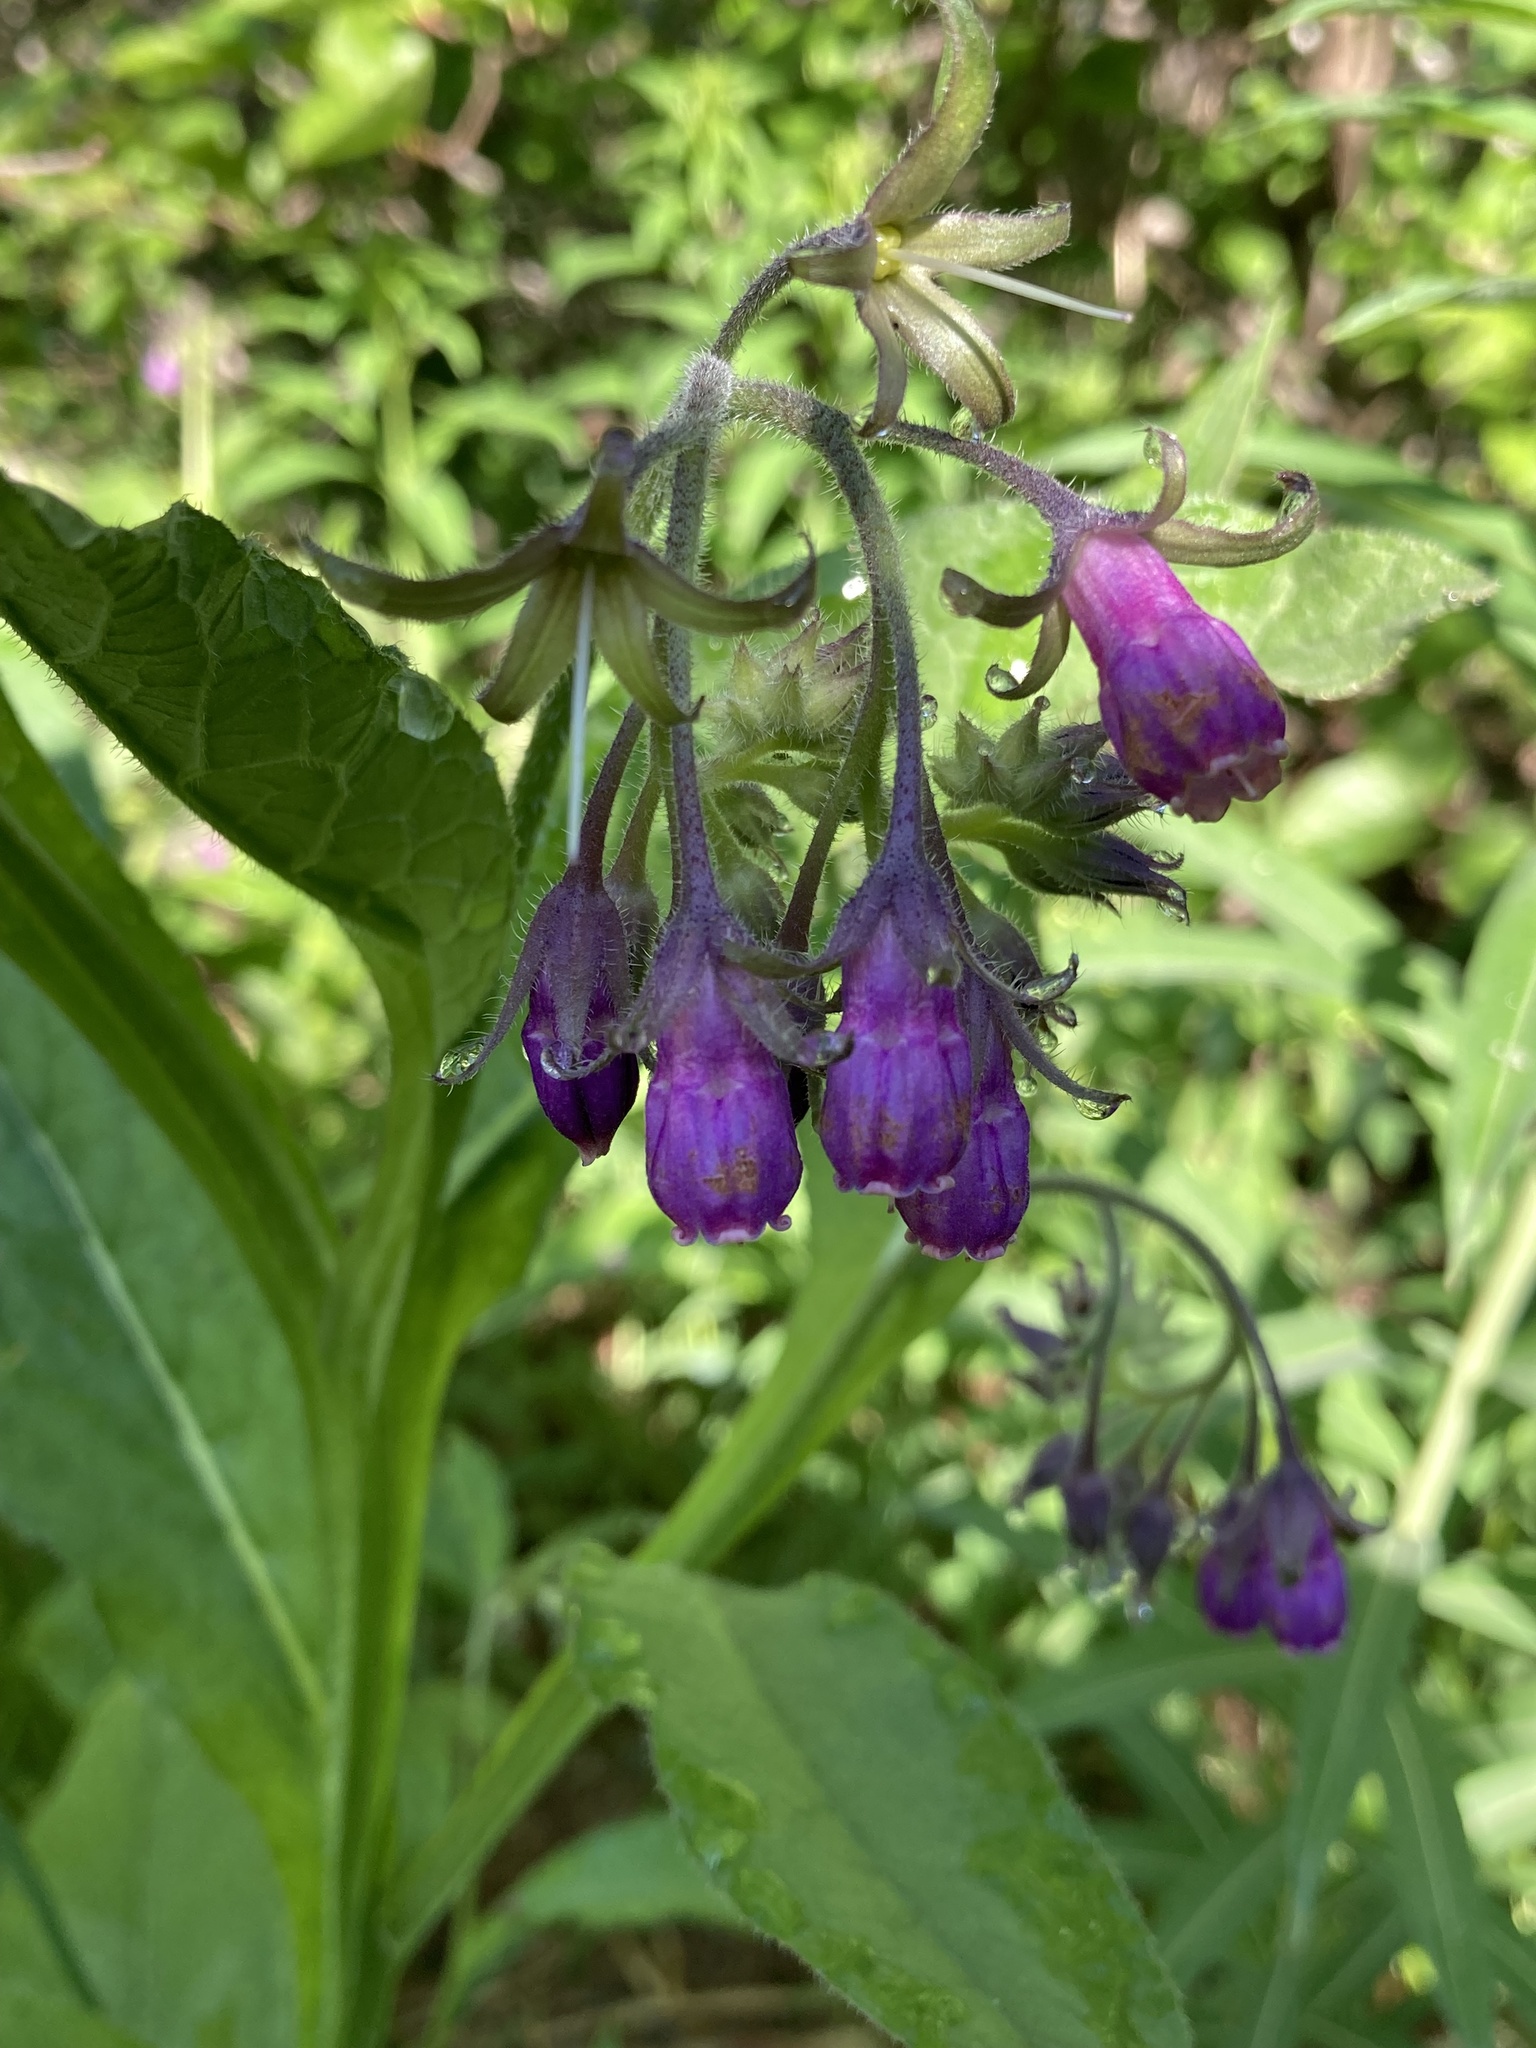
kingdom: Plantae
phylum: Tracheophyta
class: Magnoliopsida
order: Boraginales
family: Boraginaceae
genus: Symphytum
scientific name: Symphytum officinale
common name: Common comfrey
